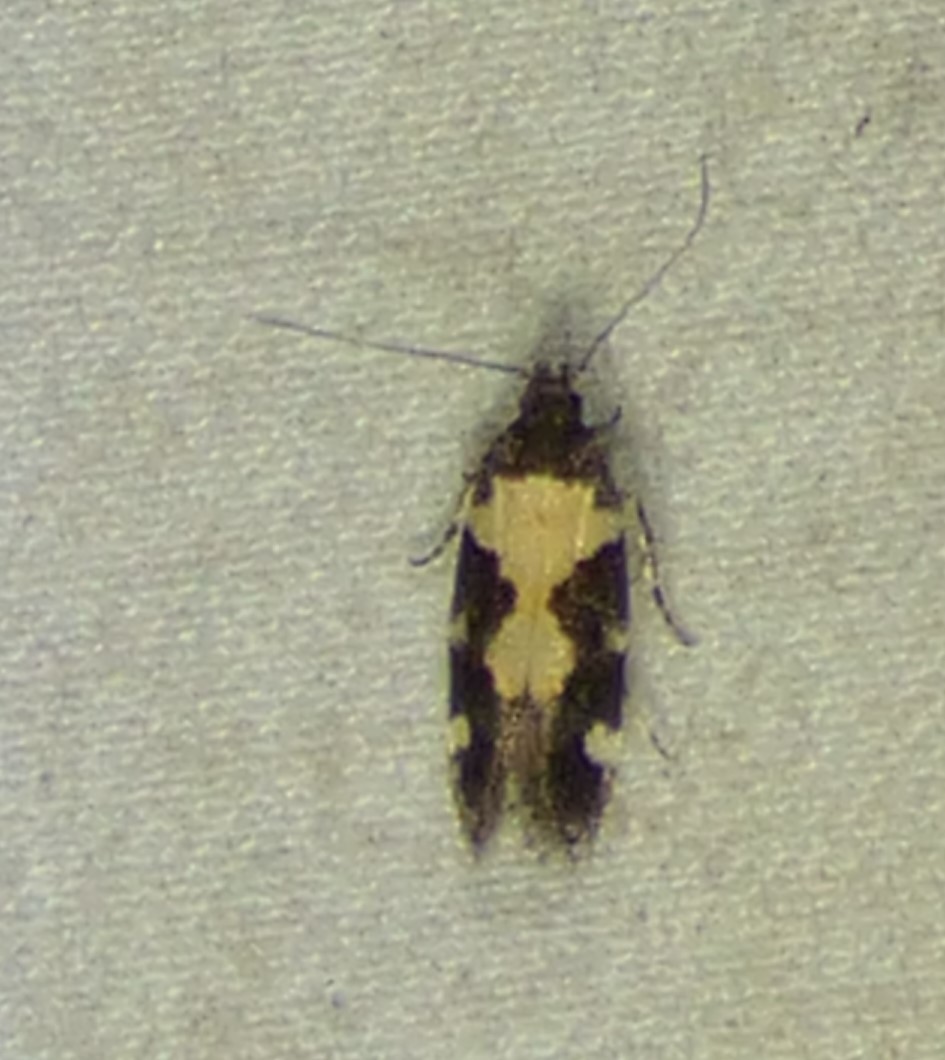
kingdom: Animalia
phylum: Arthropoda
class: Insecta
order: Lepidoptera
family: Gelechiidae
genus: Stegasta
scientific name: Stegasta bosqueella
